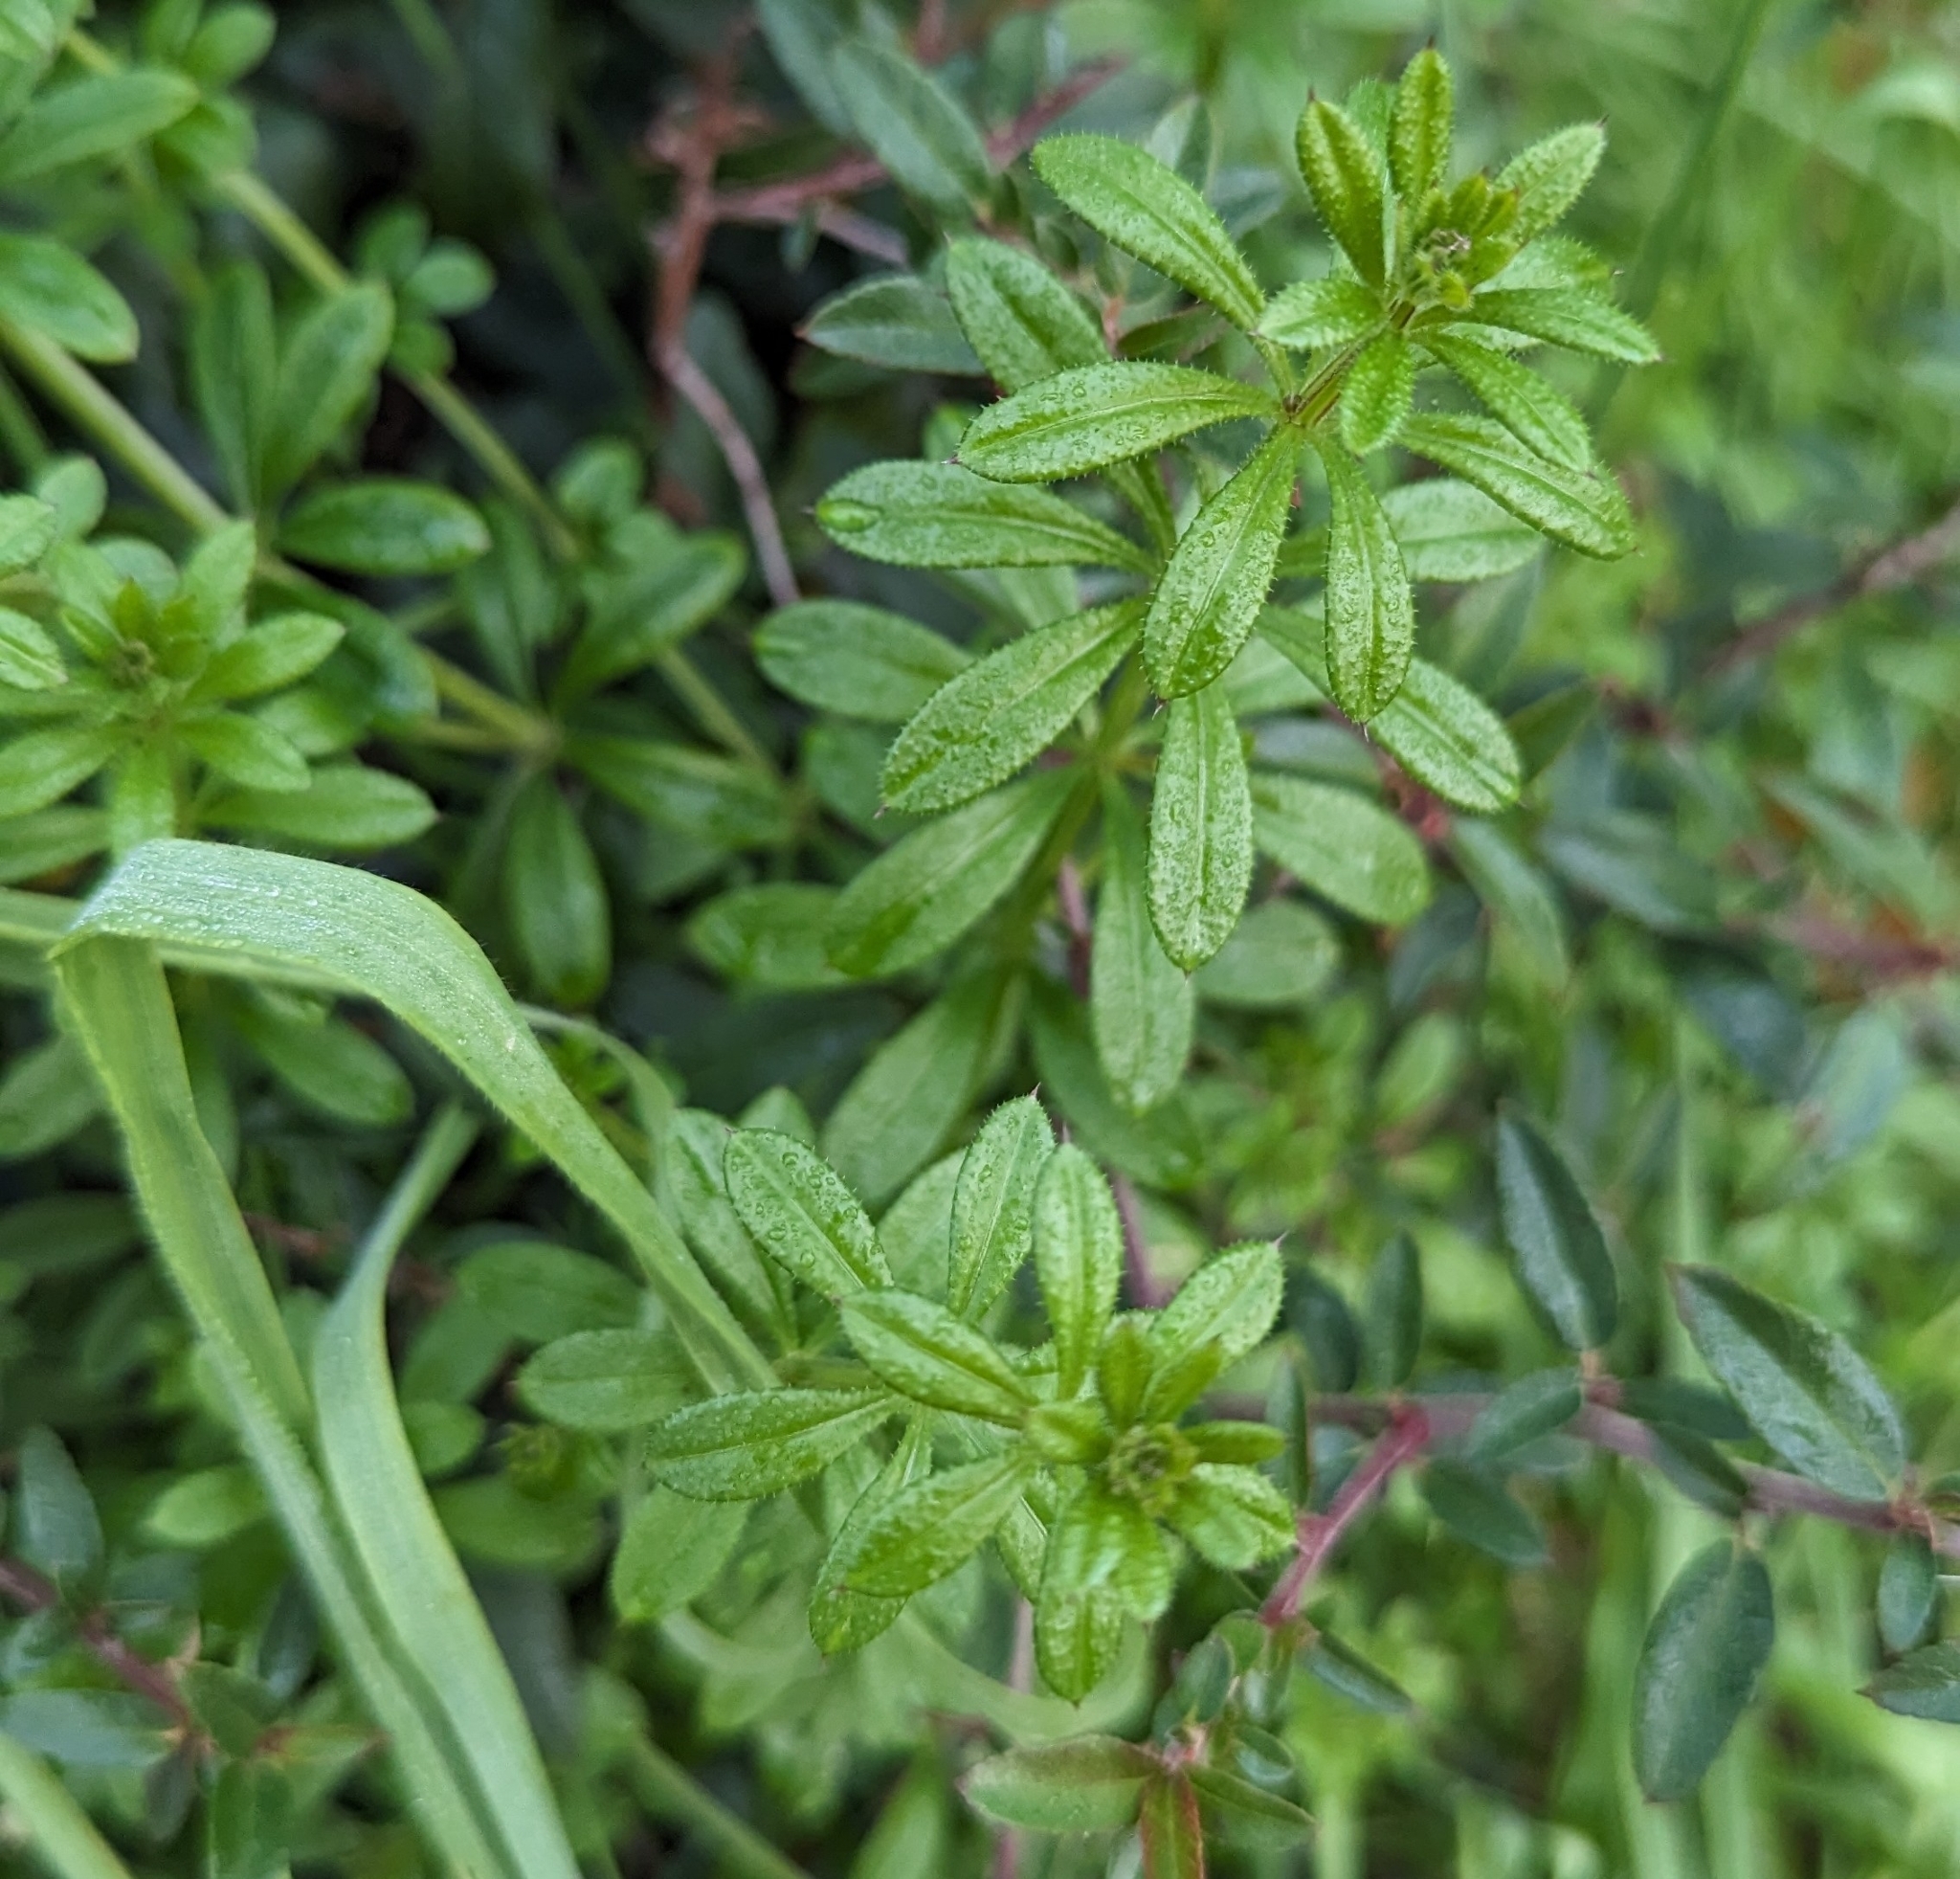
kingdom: Plantae
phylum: Tracheophyta
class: Magnoliopsida
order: Gentianales
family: Rubiaceae
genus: Galium
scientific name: Galium aparine
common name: Cleavers
